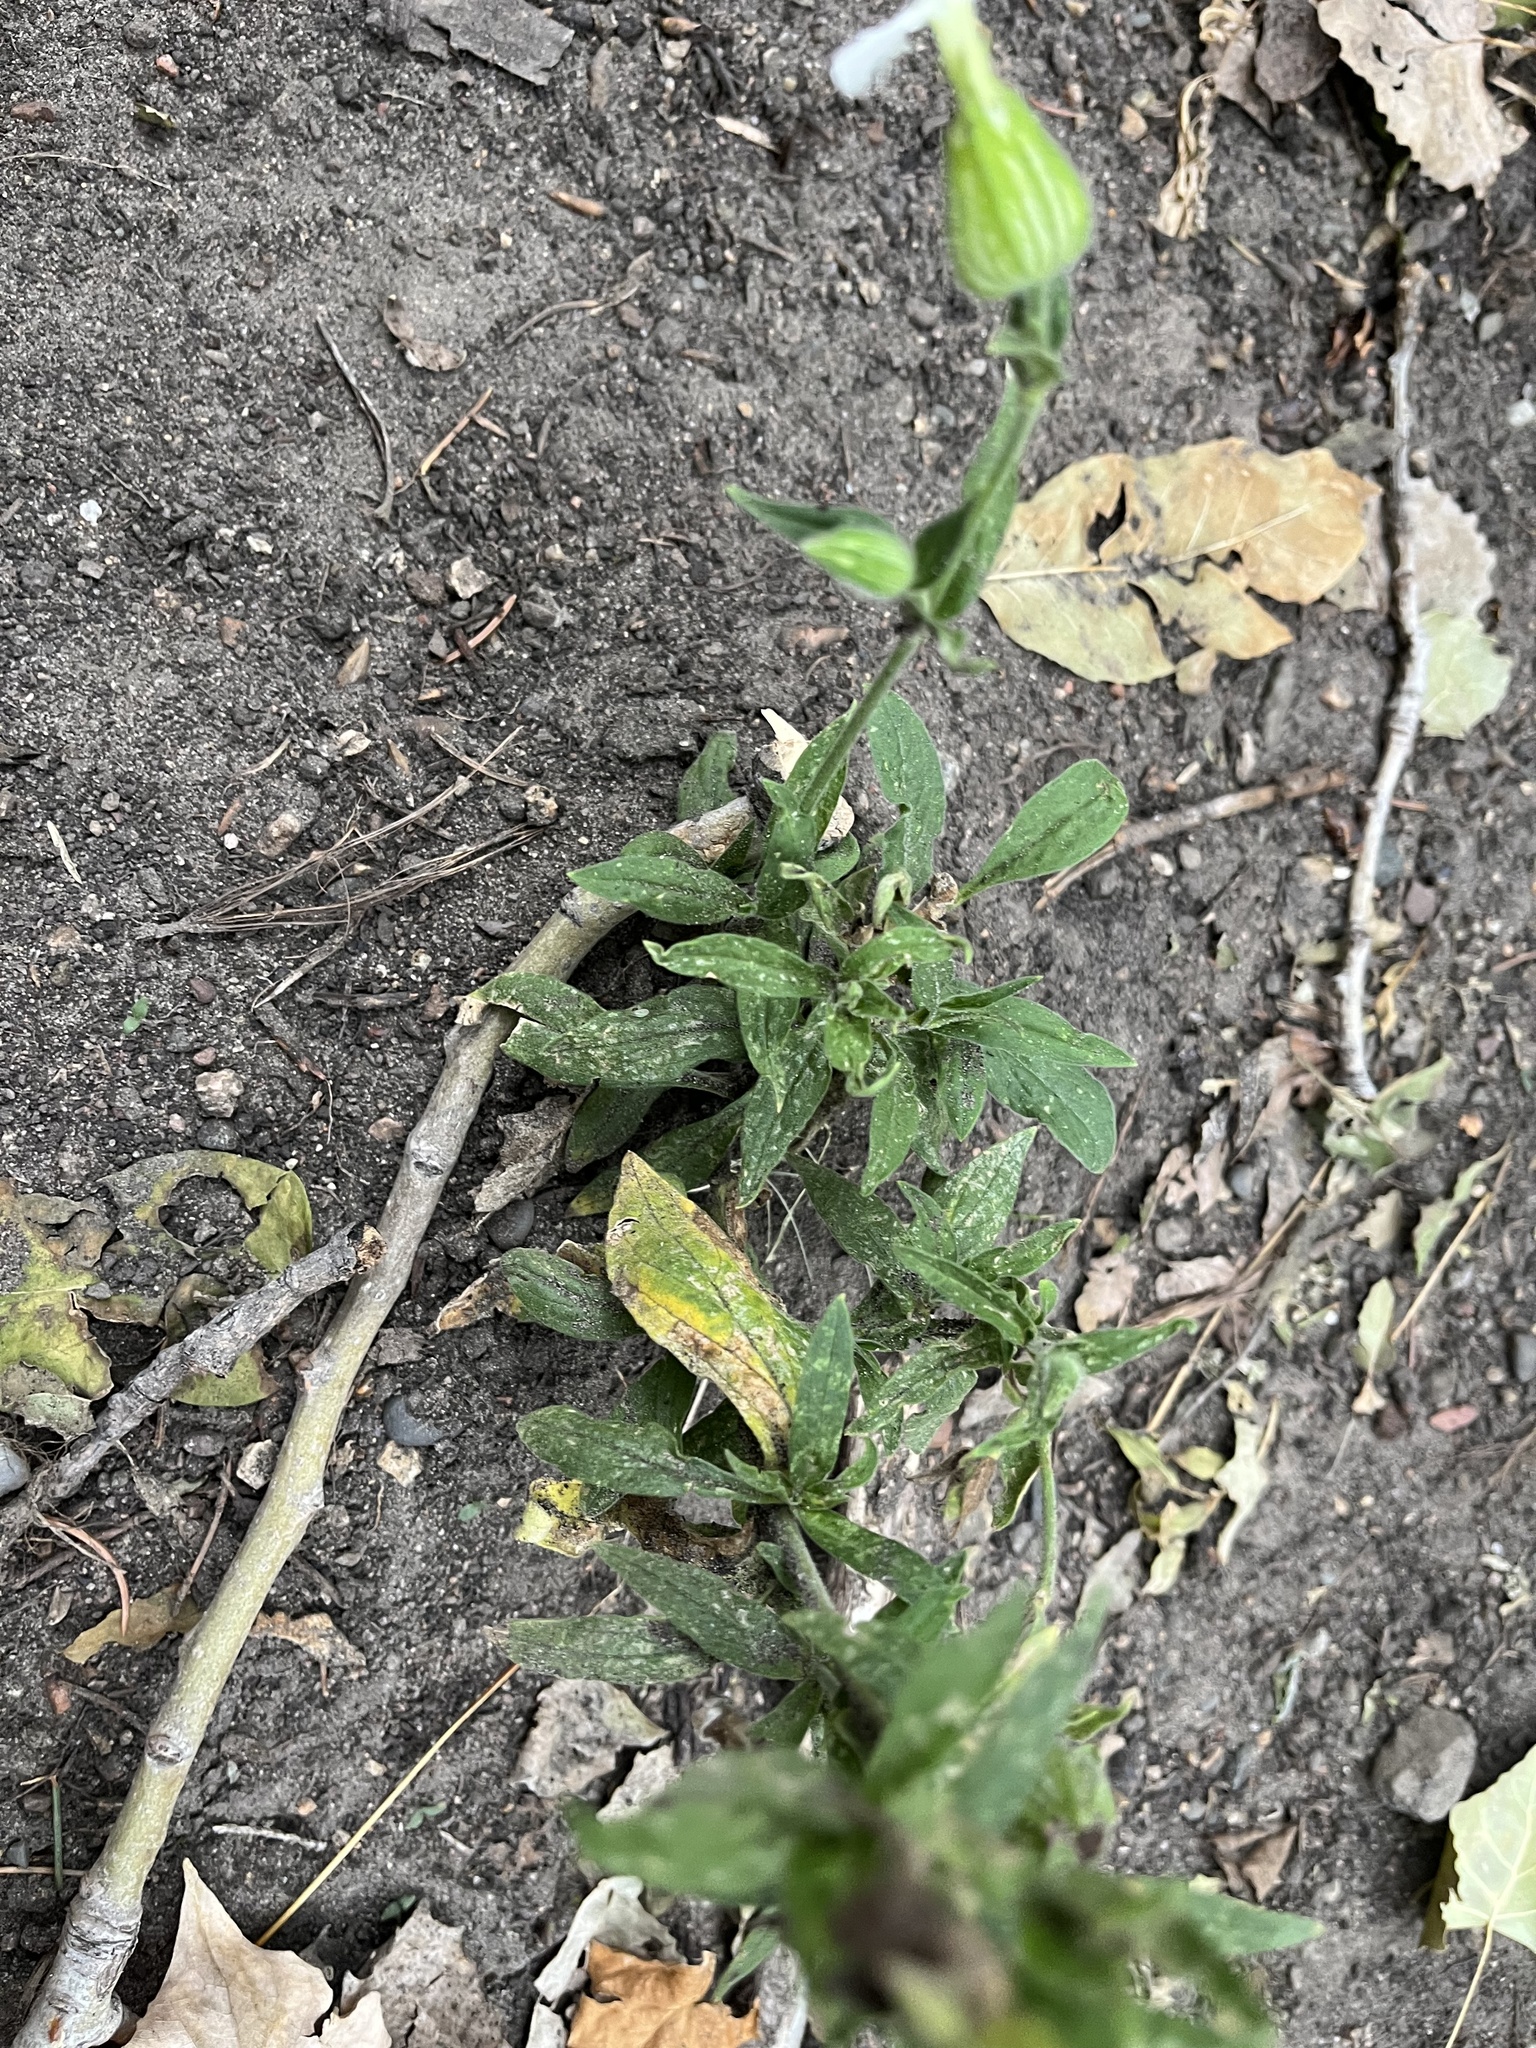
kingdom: Plantae
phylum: Tracheophyta
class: Magnoliopsida
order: Caryophyllales
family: Caryophyllaceae
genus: Silene
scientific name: Silene latifolia
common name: White campion
